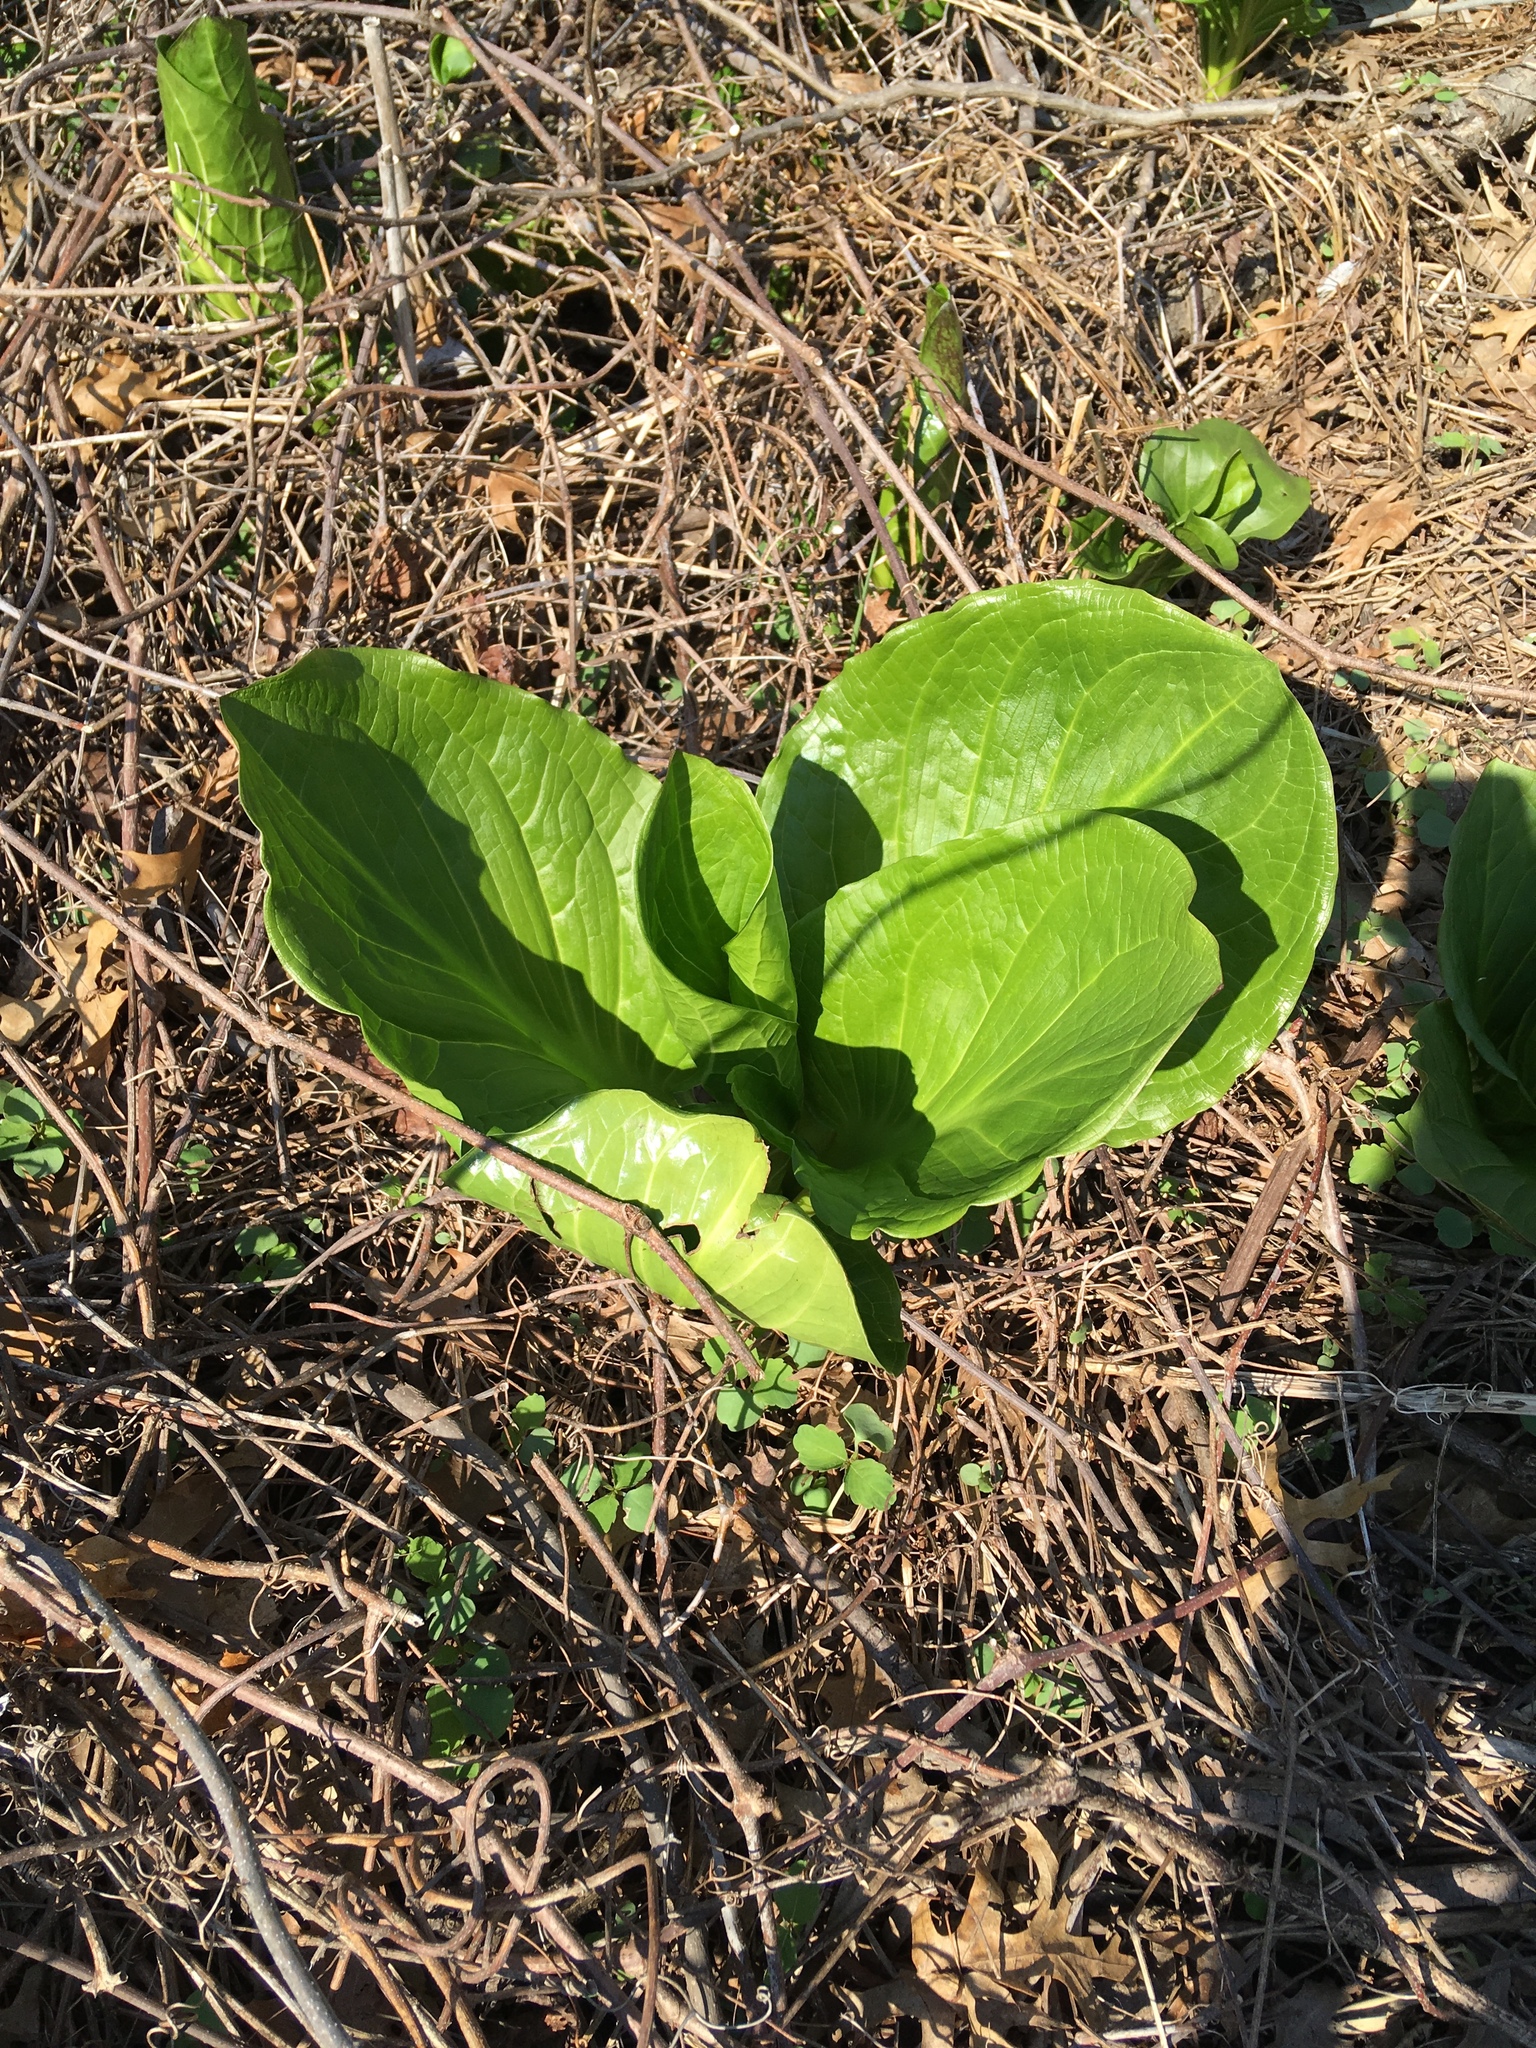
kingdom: Plantae
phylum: Tracheophyta
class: Liliopsida
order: Alismatales
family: Araceae
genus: Symplocarpus
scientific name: Symplocarpus foetidus
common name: Eastern skunk cabbage
